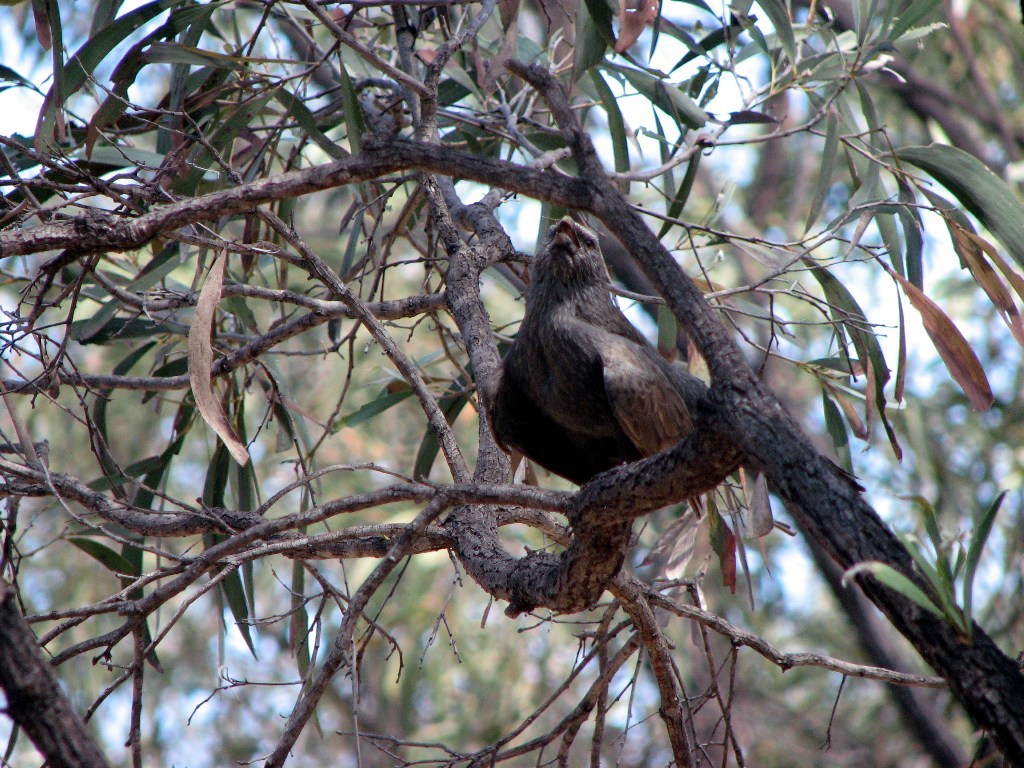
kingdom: Animalia
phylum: Chordata
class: Aves
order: Passeriformes
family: Corcoracidae
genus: Struthidea
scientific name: Struthidea cinerea
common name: Apostlebird
